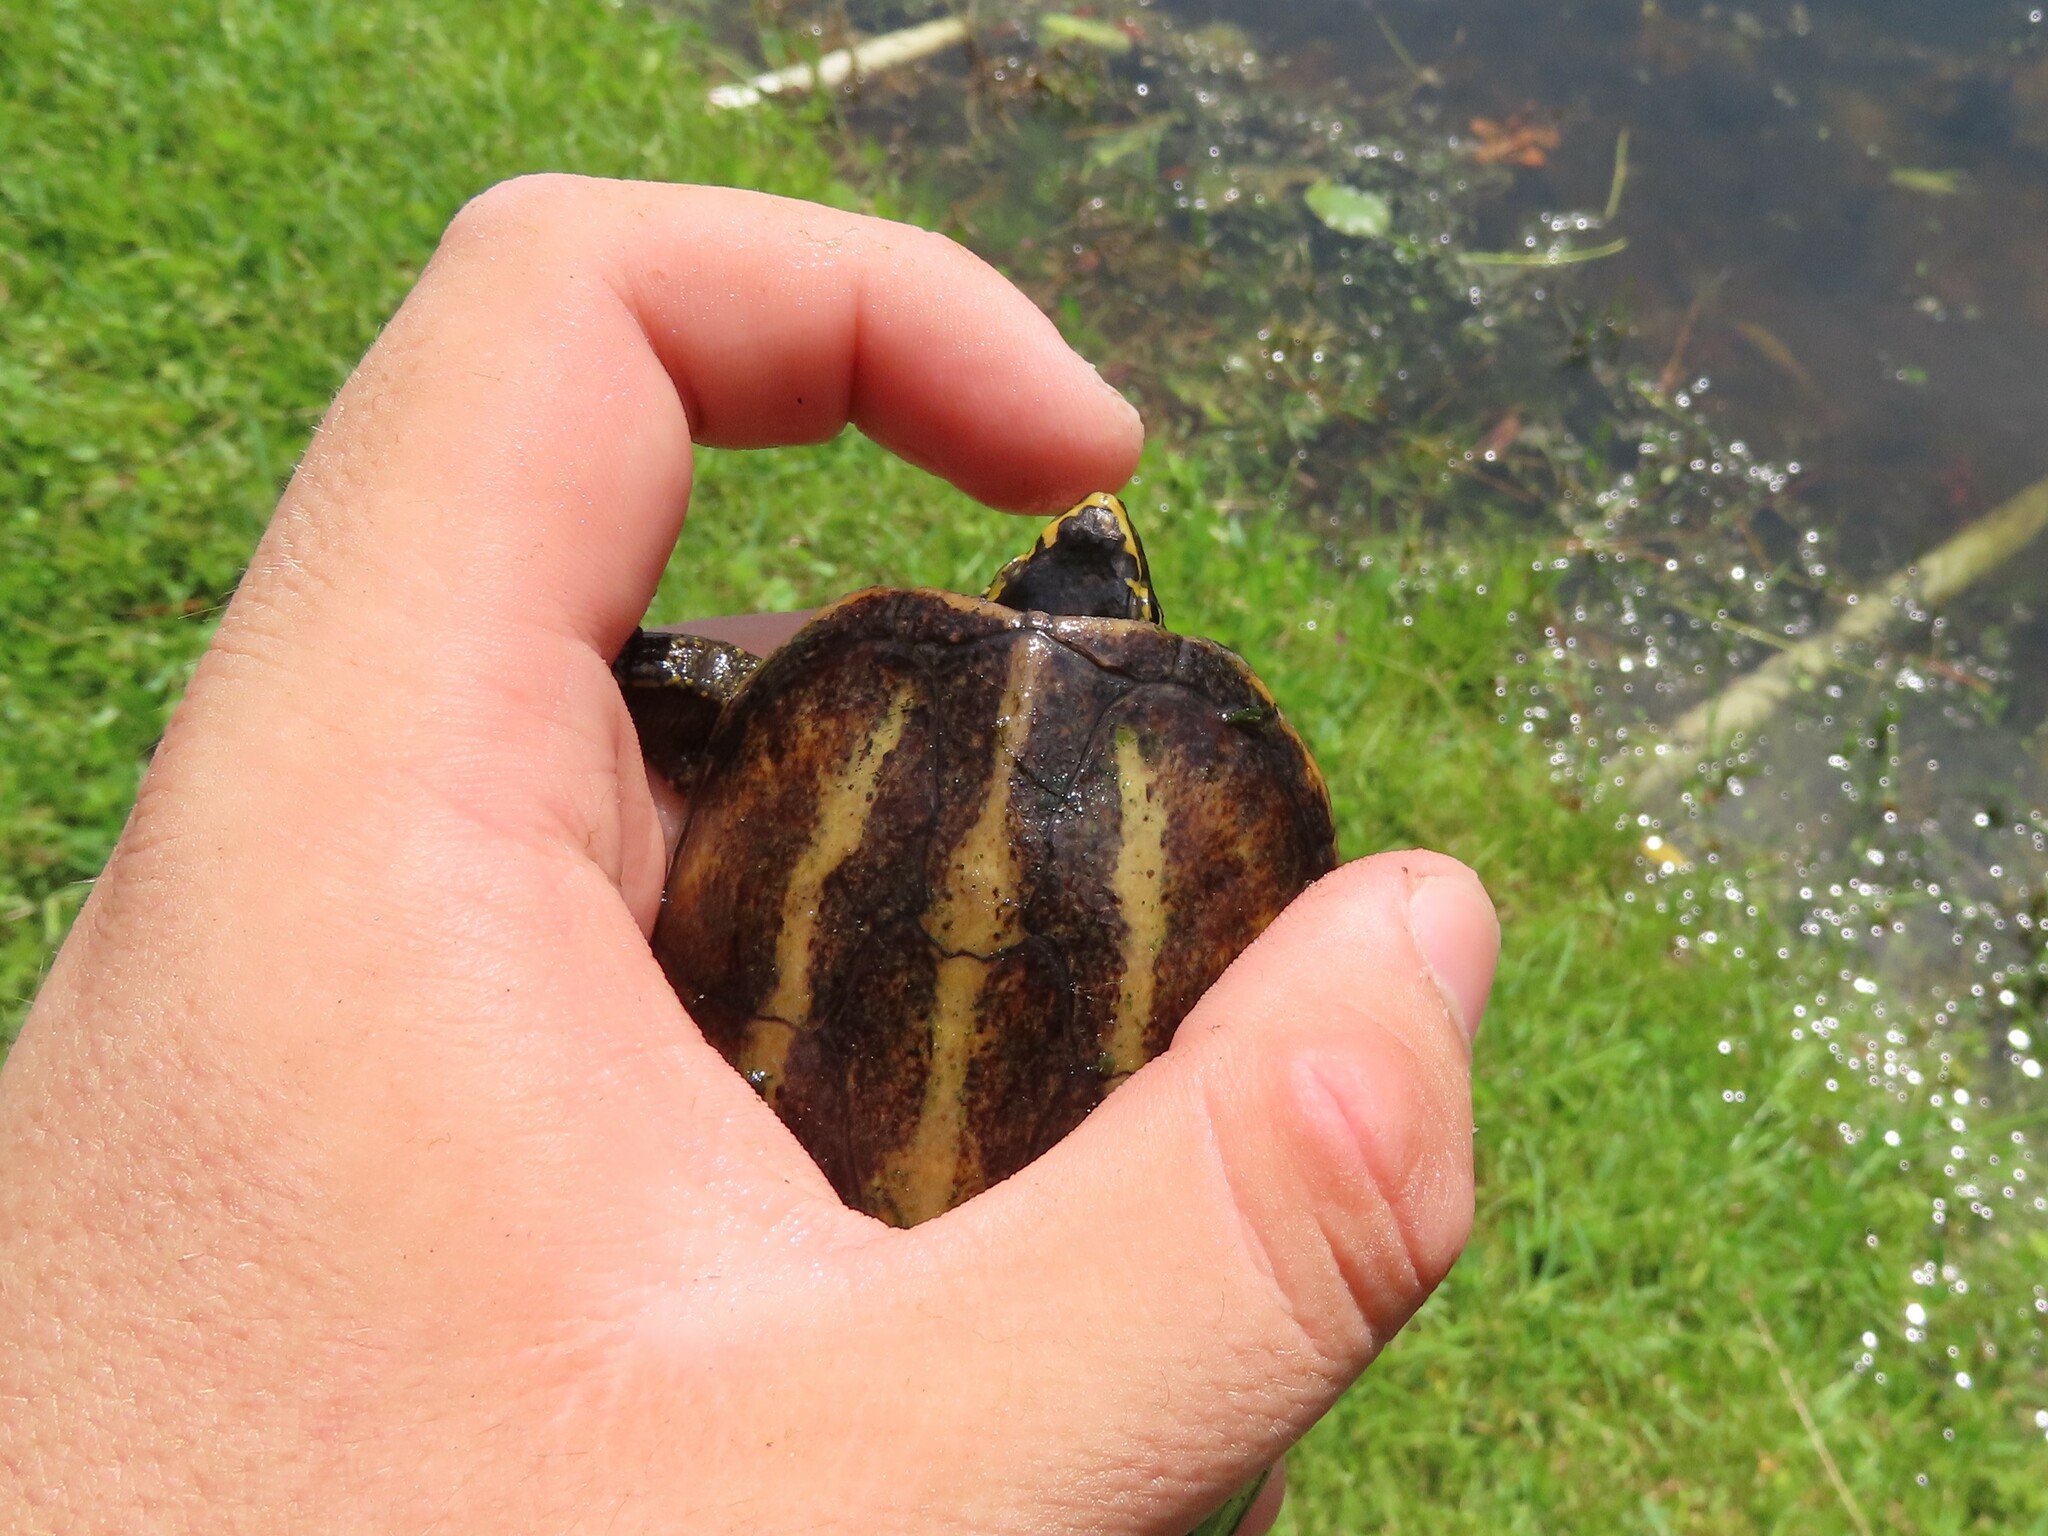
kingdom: Animalia
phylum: Chordata
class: Testudines
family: Kinosternidae
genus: Kinosternon
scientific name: Kinosternon baurii
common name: Striped mud turtle
